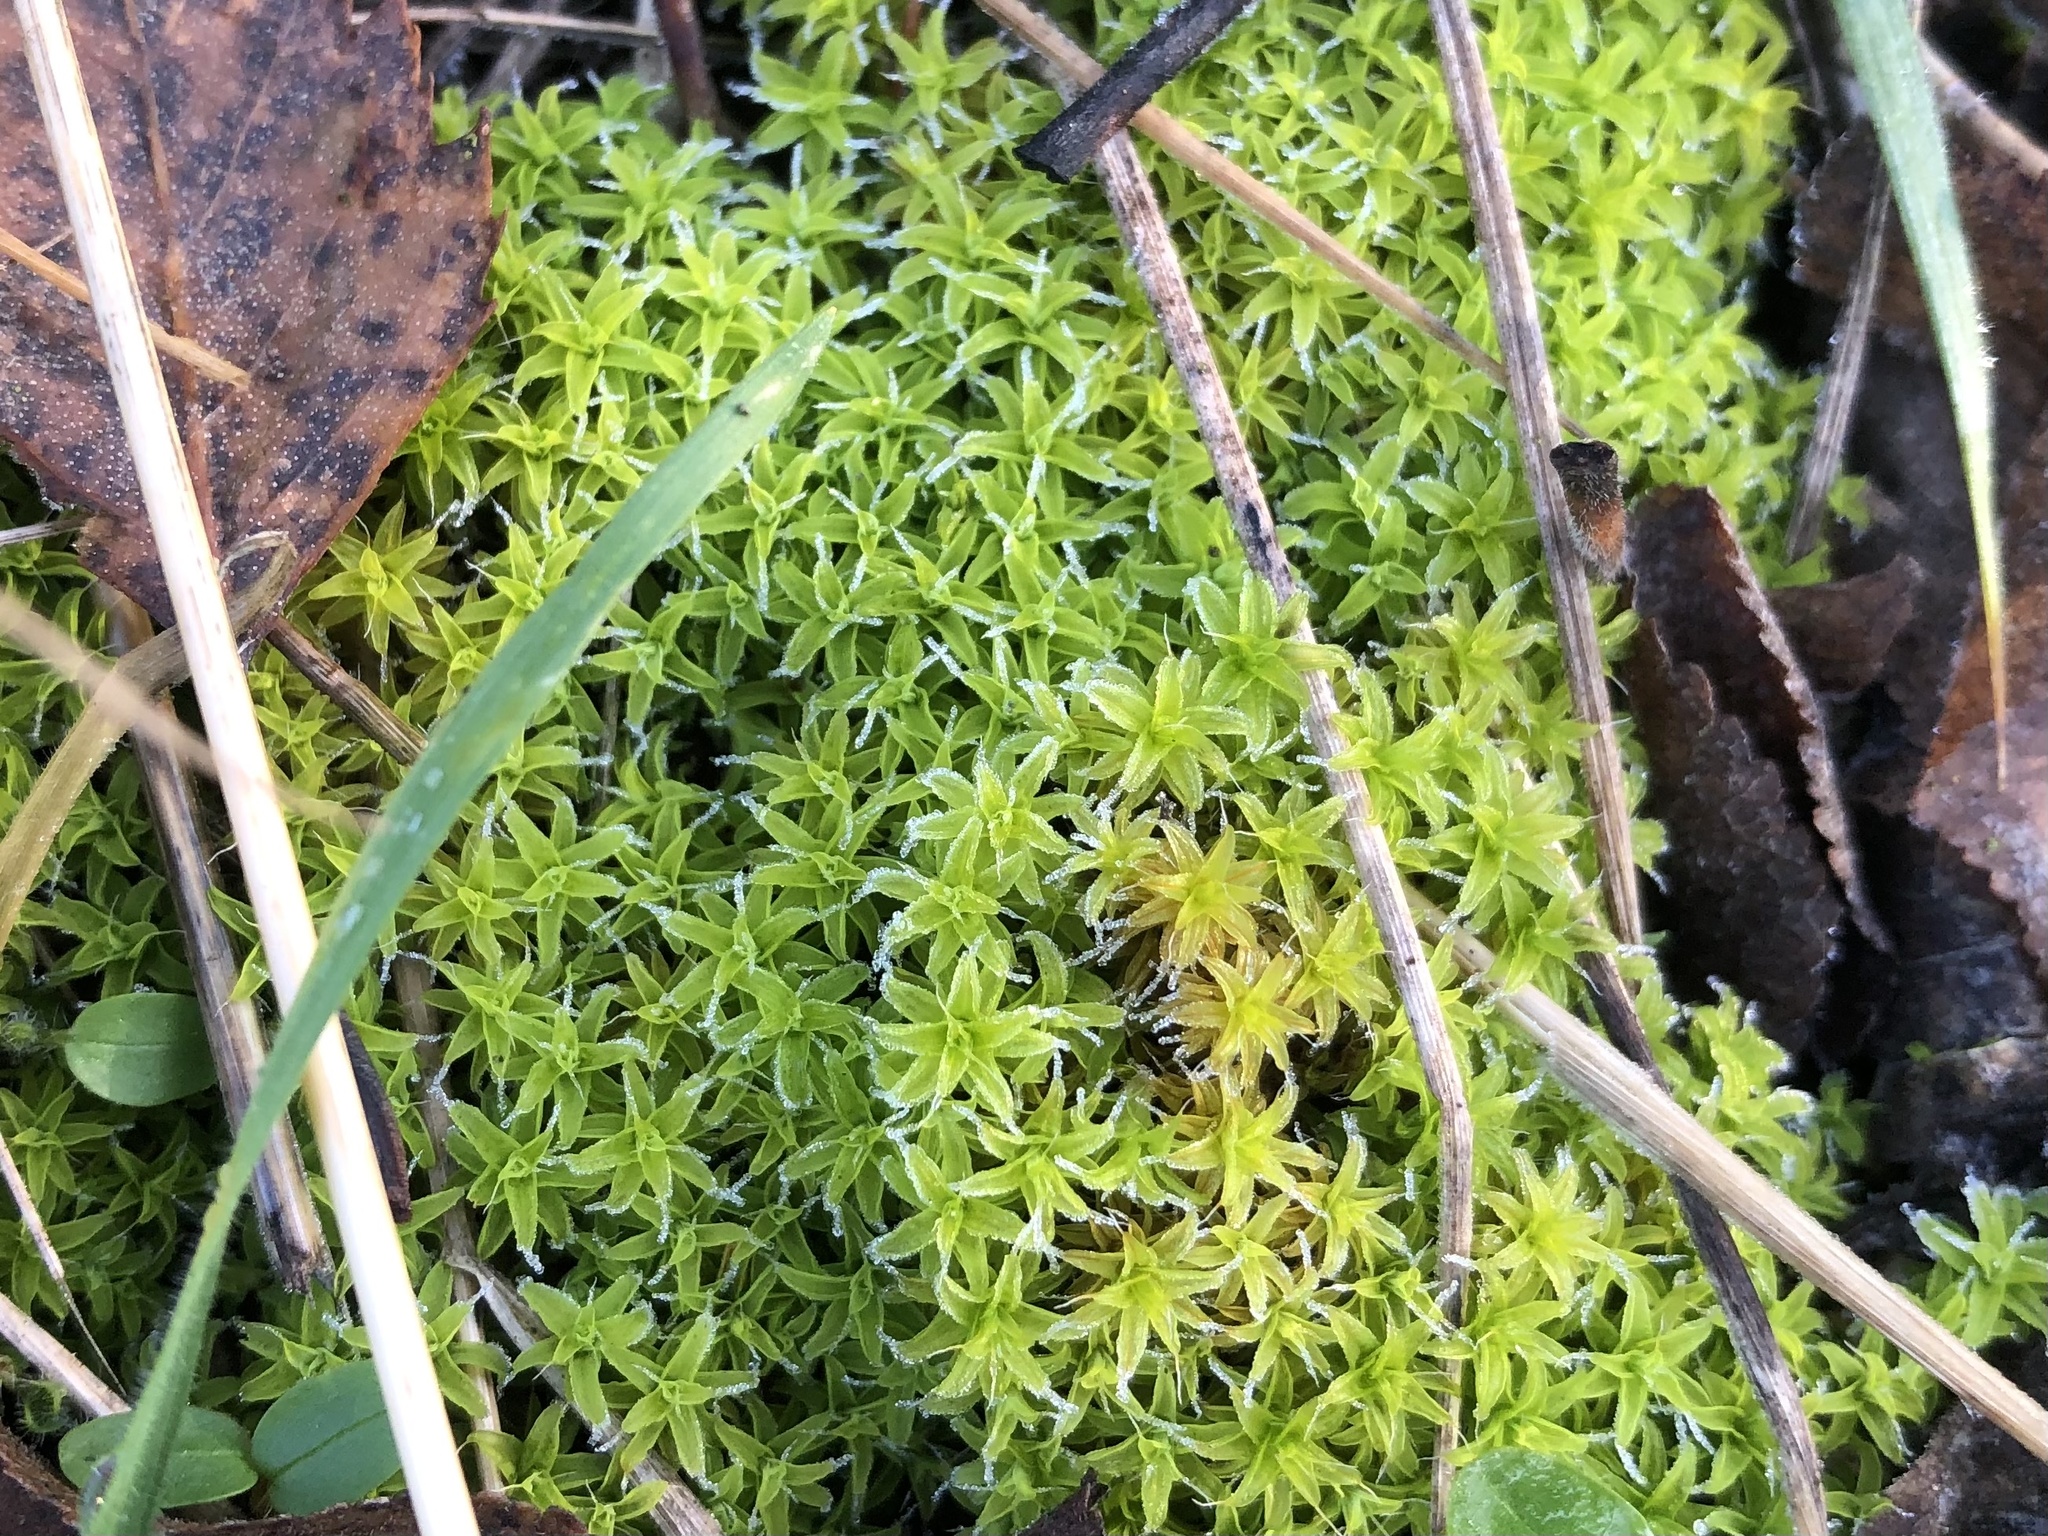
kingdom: Plantae
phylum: Bryophyta
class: Bryopsida
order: Pottiales
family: Pottiaceae
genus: Syntrichia
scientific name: Syntrichia ruralis
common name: Sidewalk screw moss
